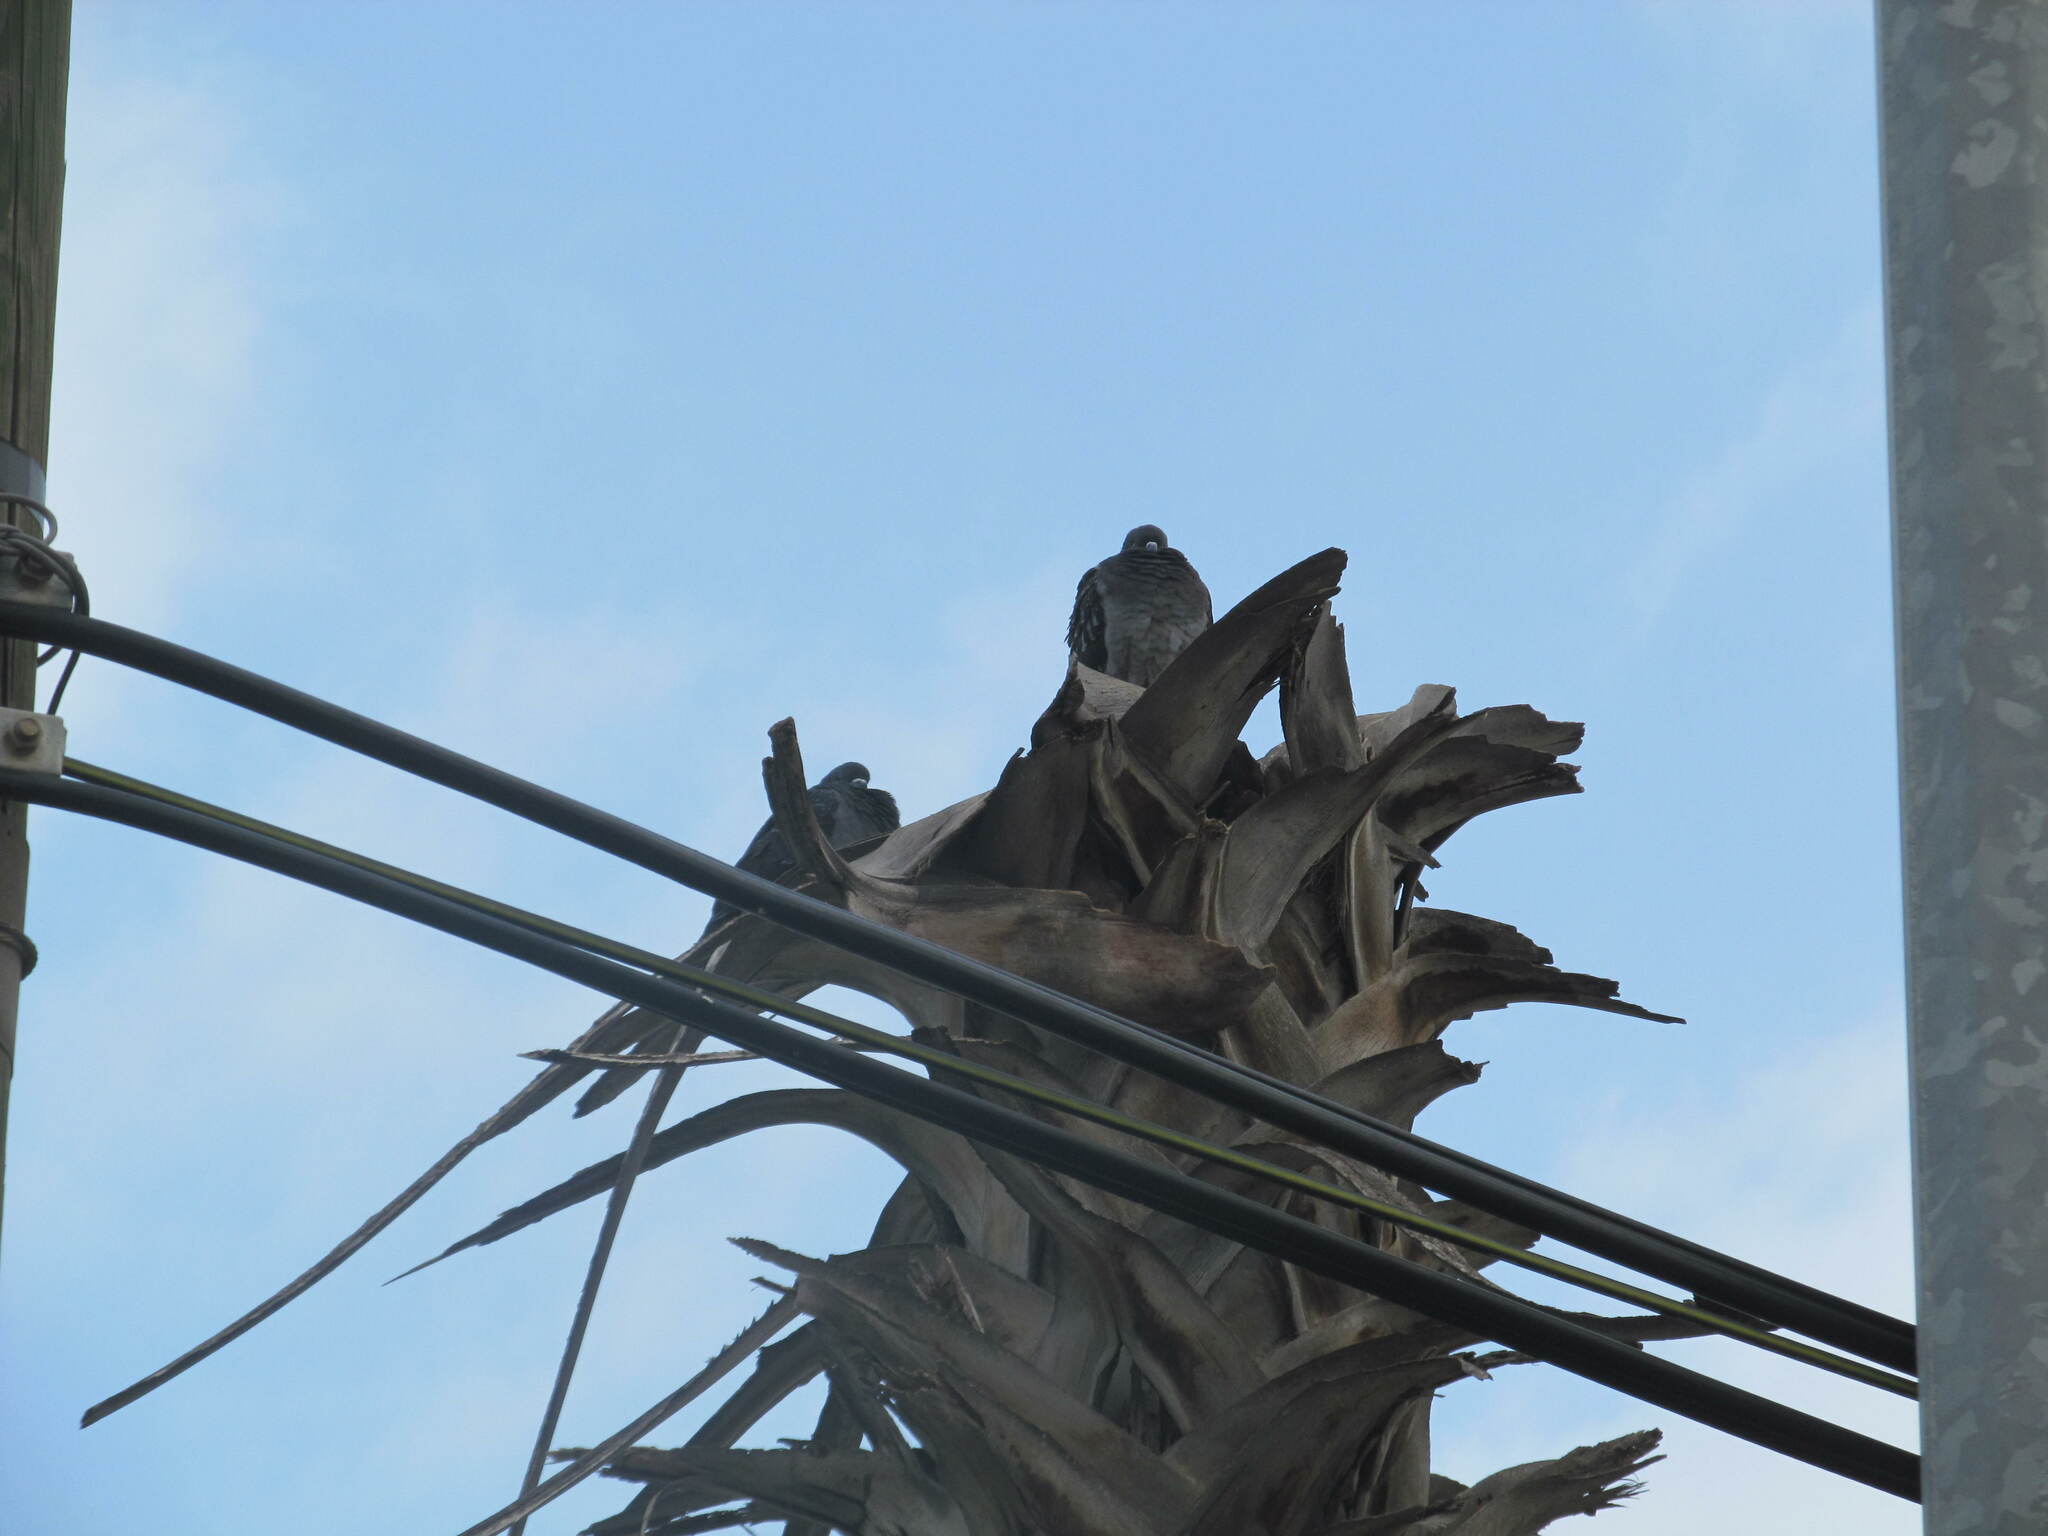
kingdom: Animalia
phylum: Chordata
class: Aves
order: Columbiformes
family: Columbidae
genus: Columba
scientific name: Columba livia
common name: Rock pigeon
